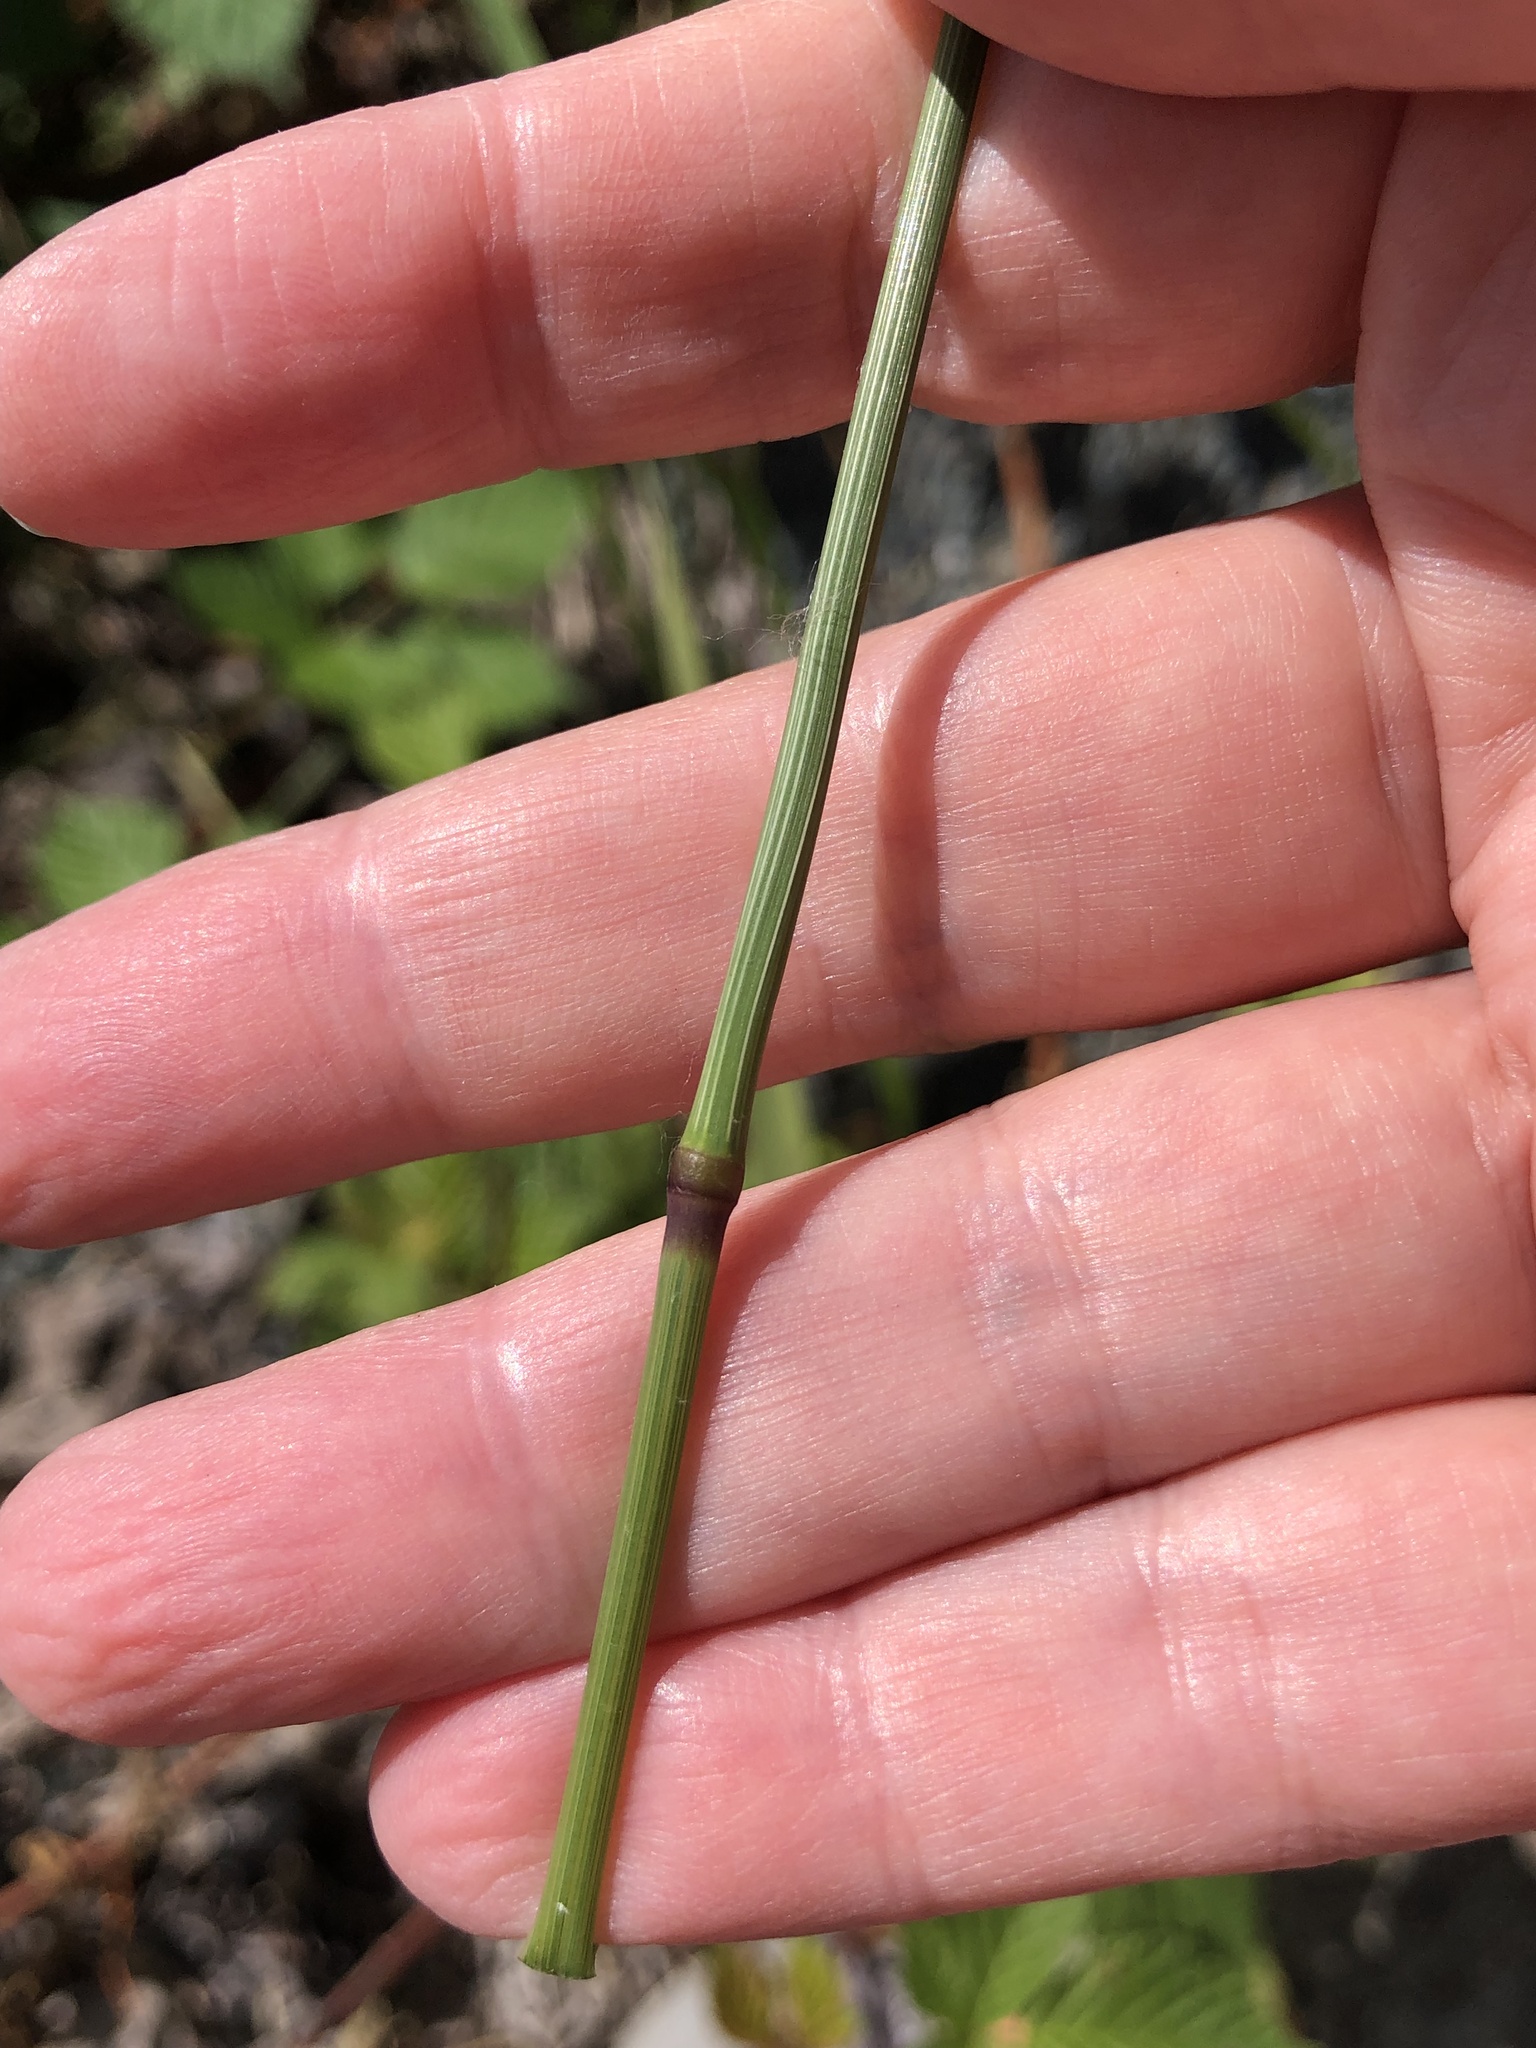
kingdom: Plantae
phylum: Tracheophyta
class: Liliopsida
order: Poales
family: Poaceae
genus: Arrhenatherum
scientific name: Arrhenatherum elatius
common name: Tall oatgrass
